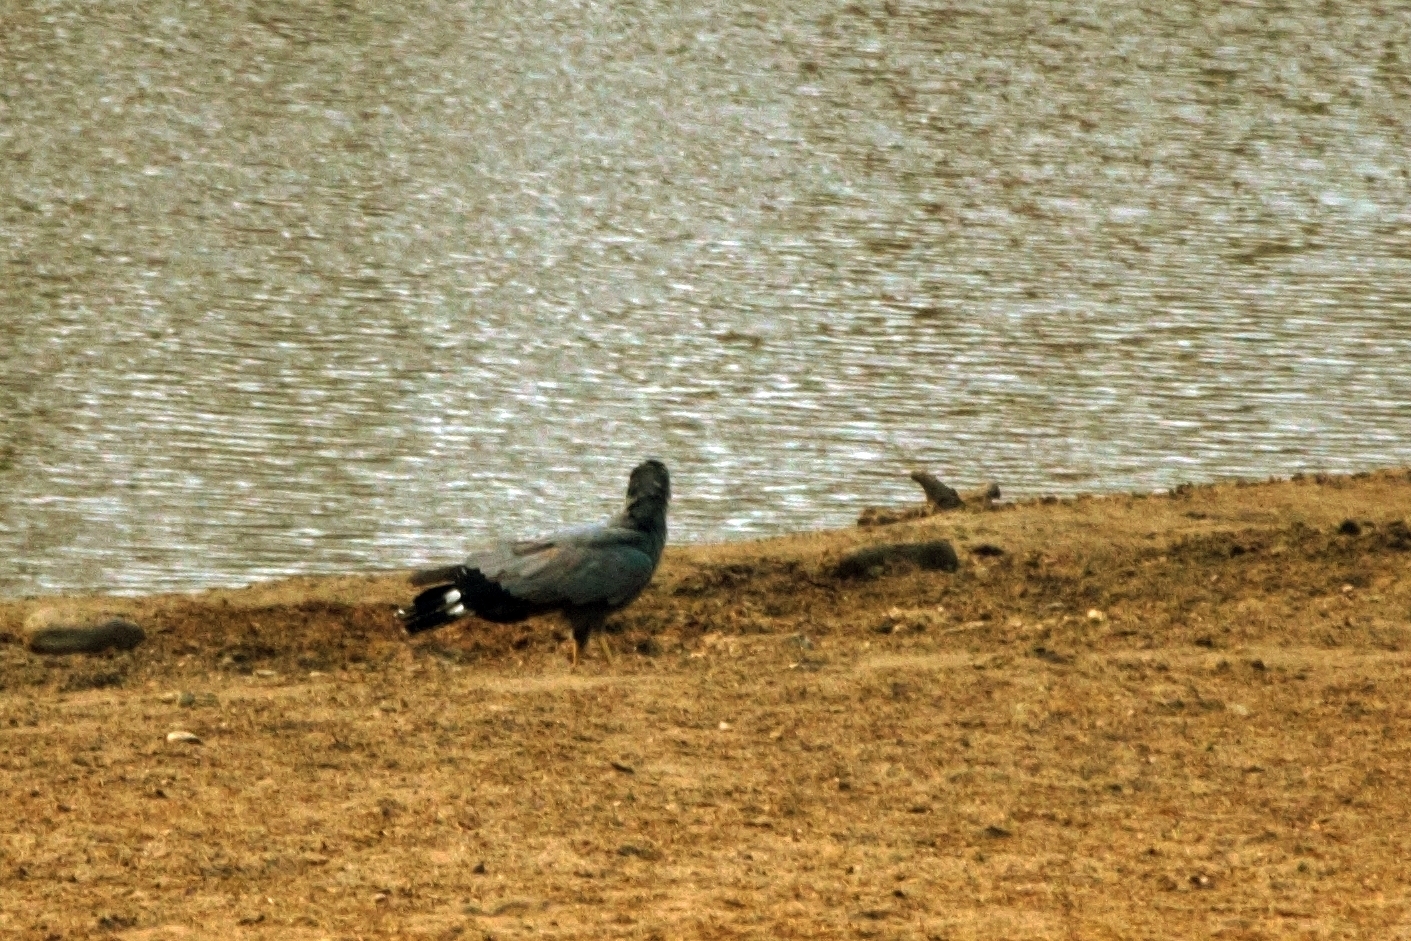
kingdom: Animalia
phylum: Chordata
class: Aves
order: Accipitriformes
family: Accipitridae
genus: Polyboroides
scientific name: Polyboroides typus
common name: African harrier-hawk
